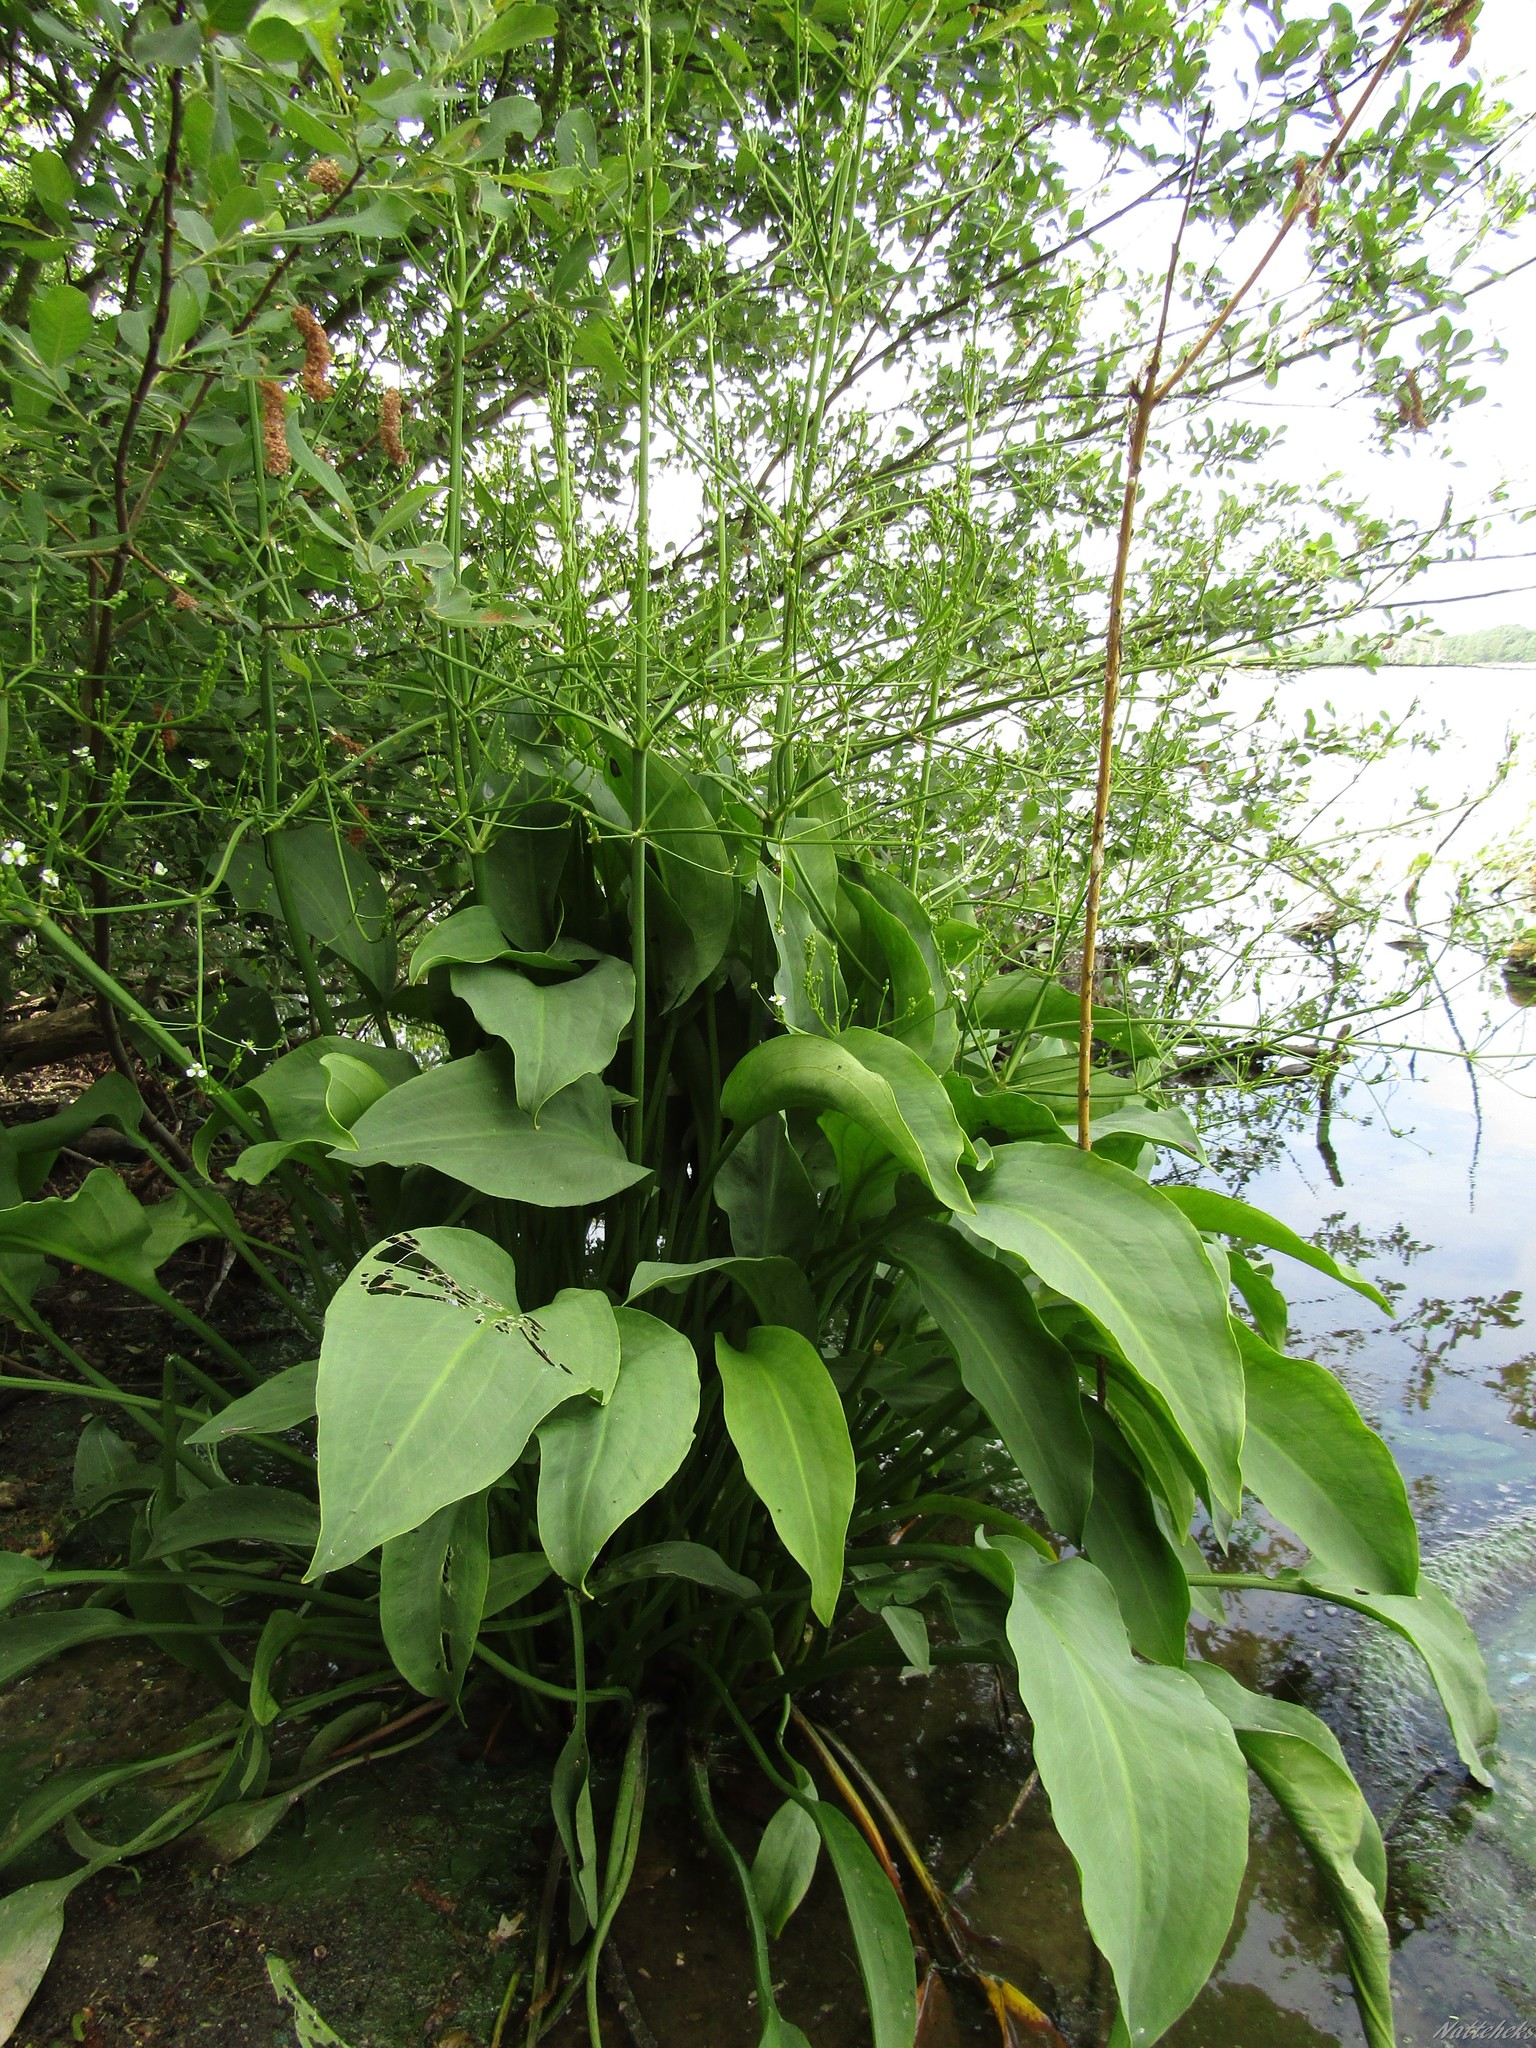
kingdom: Plantae
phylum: Tracheophyta
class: Liliopsida
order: Alismatales
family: Alismataceae
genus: Alisma
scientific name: Alisma plantago-aquatica
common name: Water-plantain
